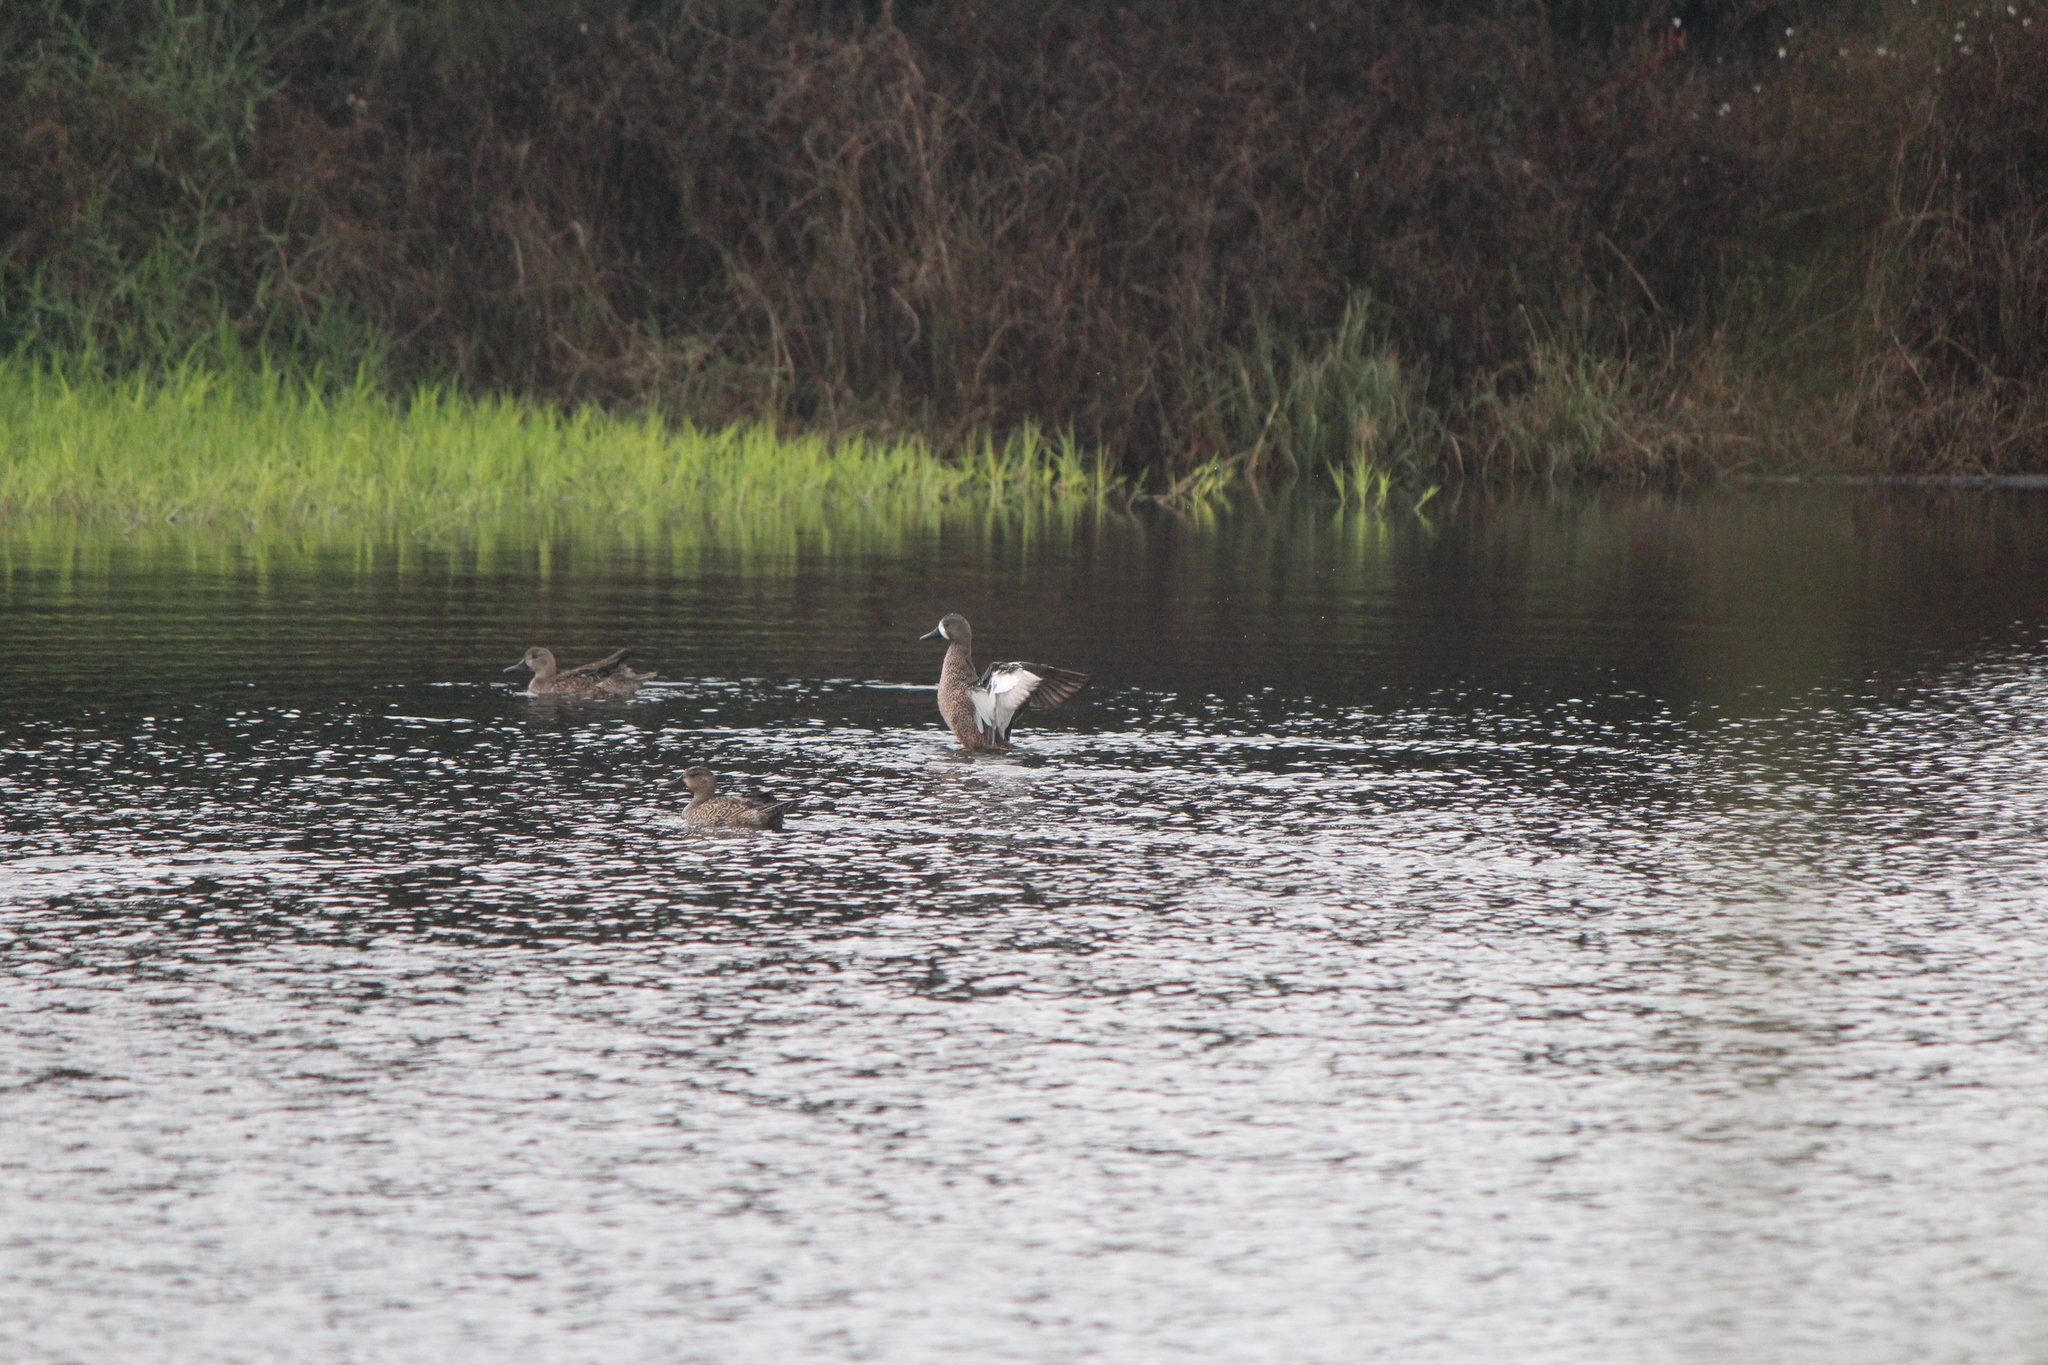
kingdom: Animalia
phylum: Chordata
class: Aves
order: Anseriformes
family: Anatidae
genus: Spatula
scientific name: Spatula discors
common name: Blue-winged teal
